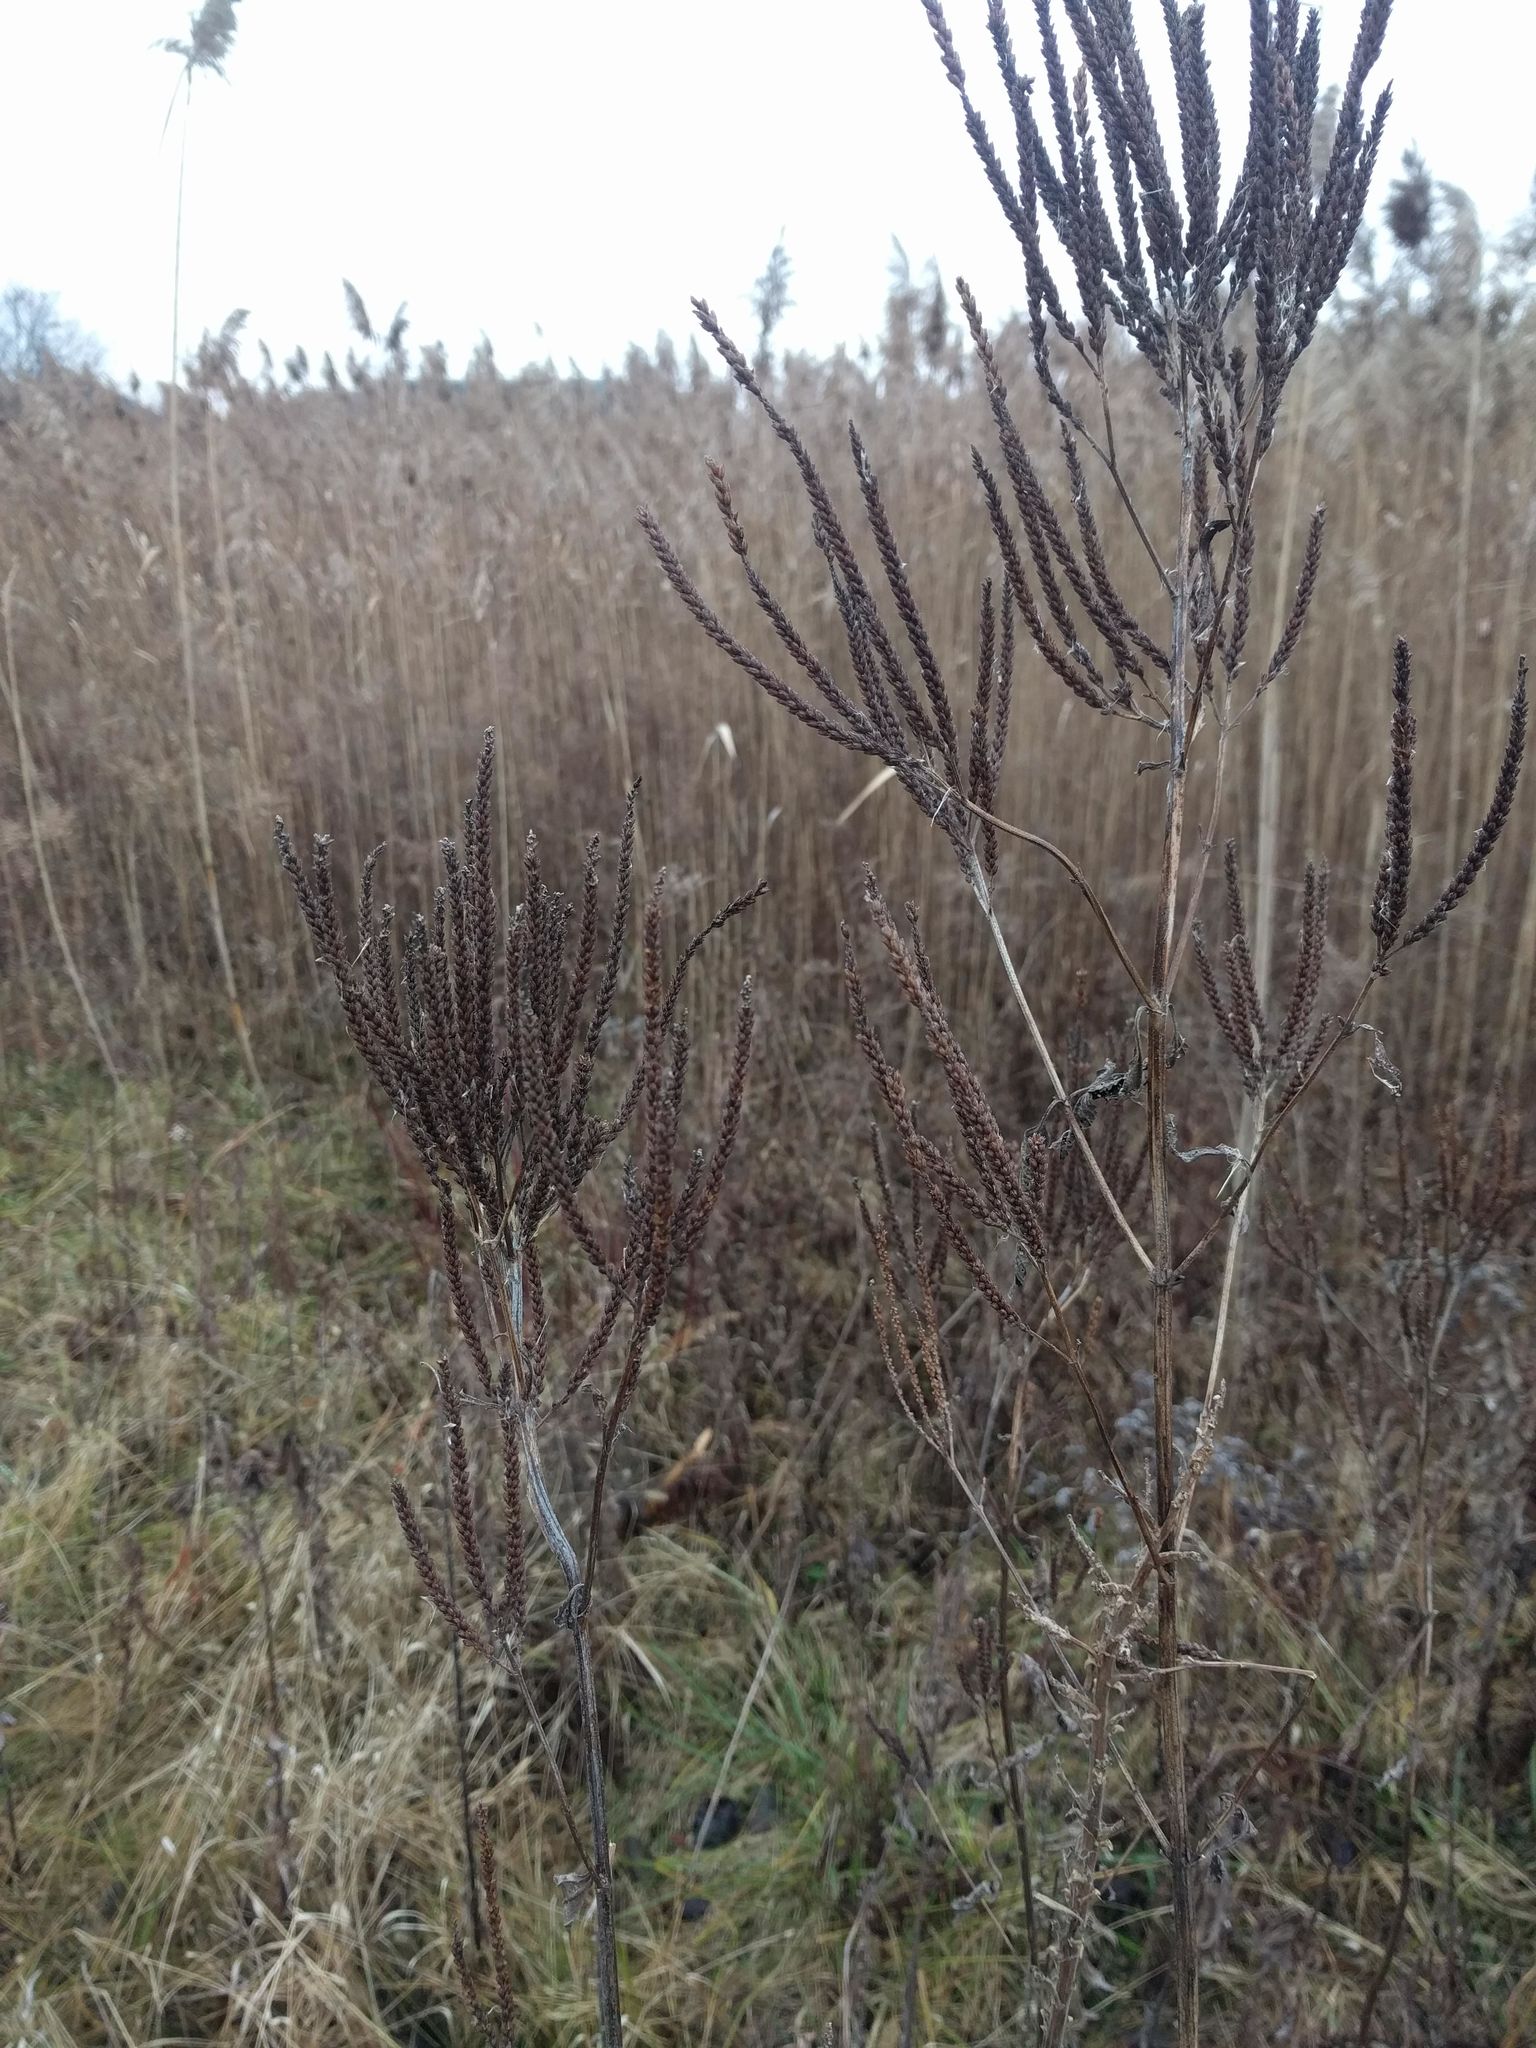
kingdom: Plantae
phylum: Tracheophyta
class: Magnoliopsida
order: Lamiales
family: Verbenaceae
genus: Verbena
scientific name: Verbena hastata
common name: American blue vervain
